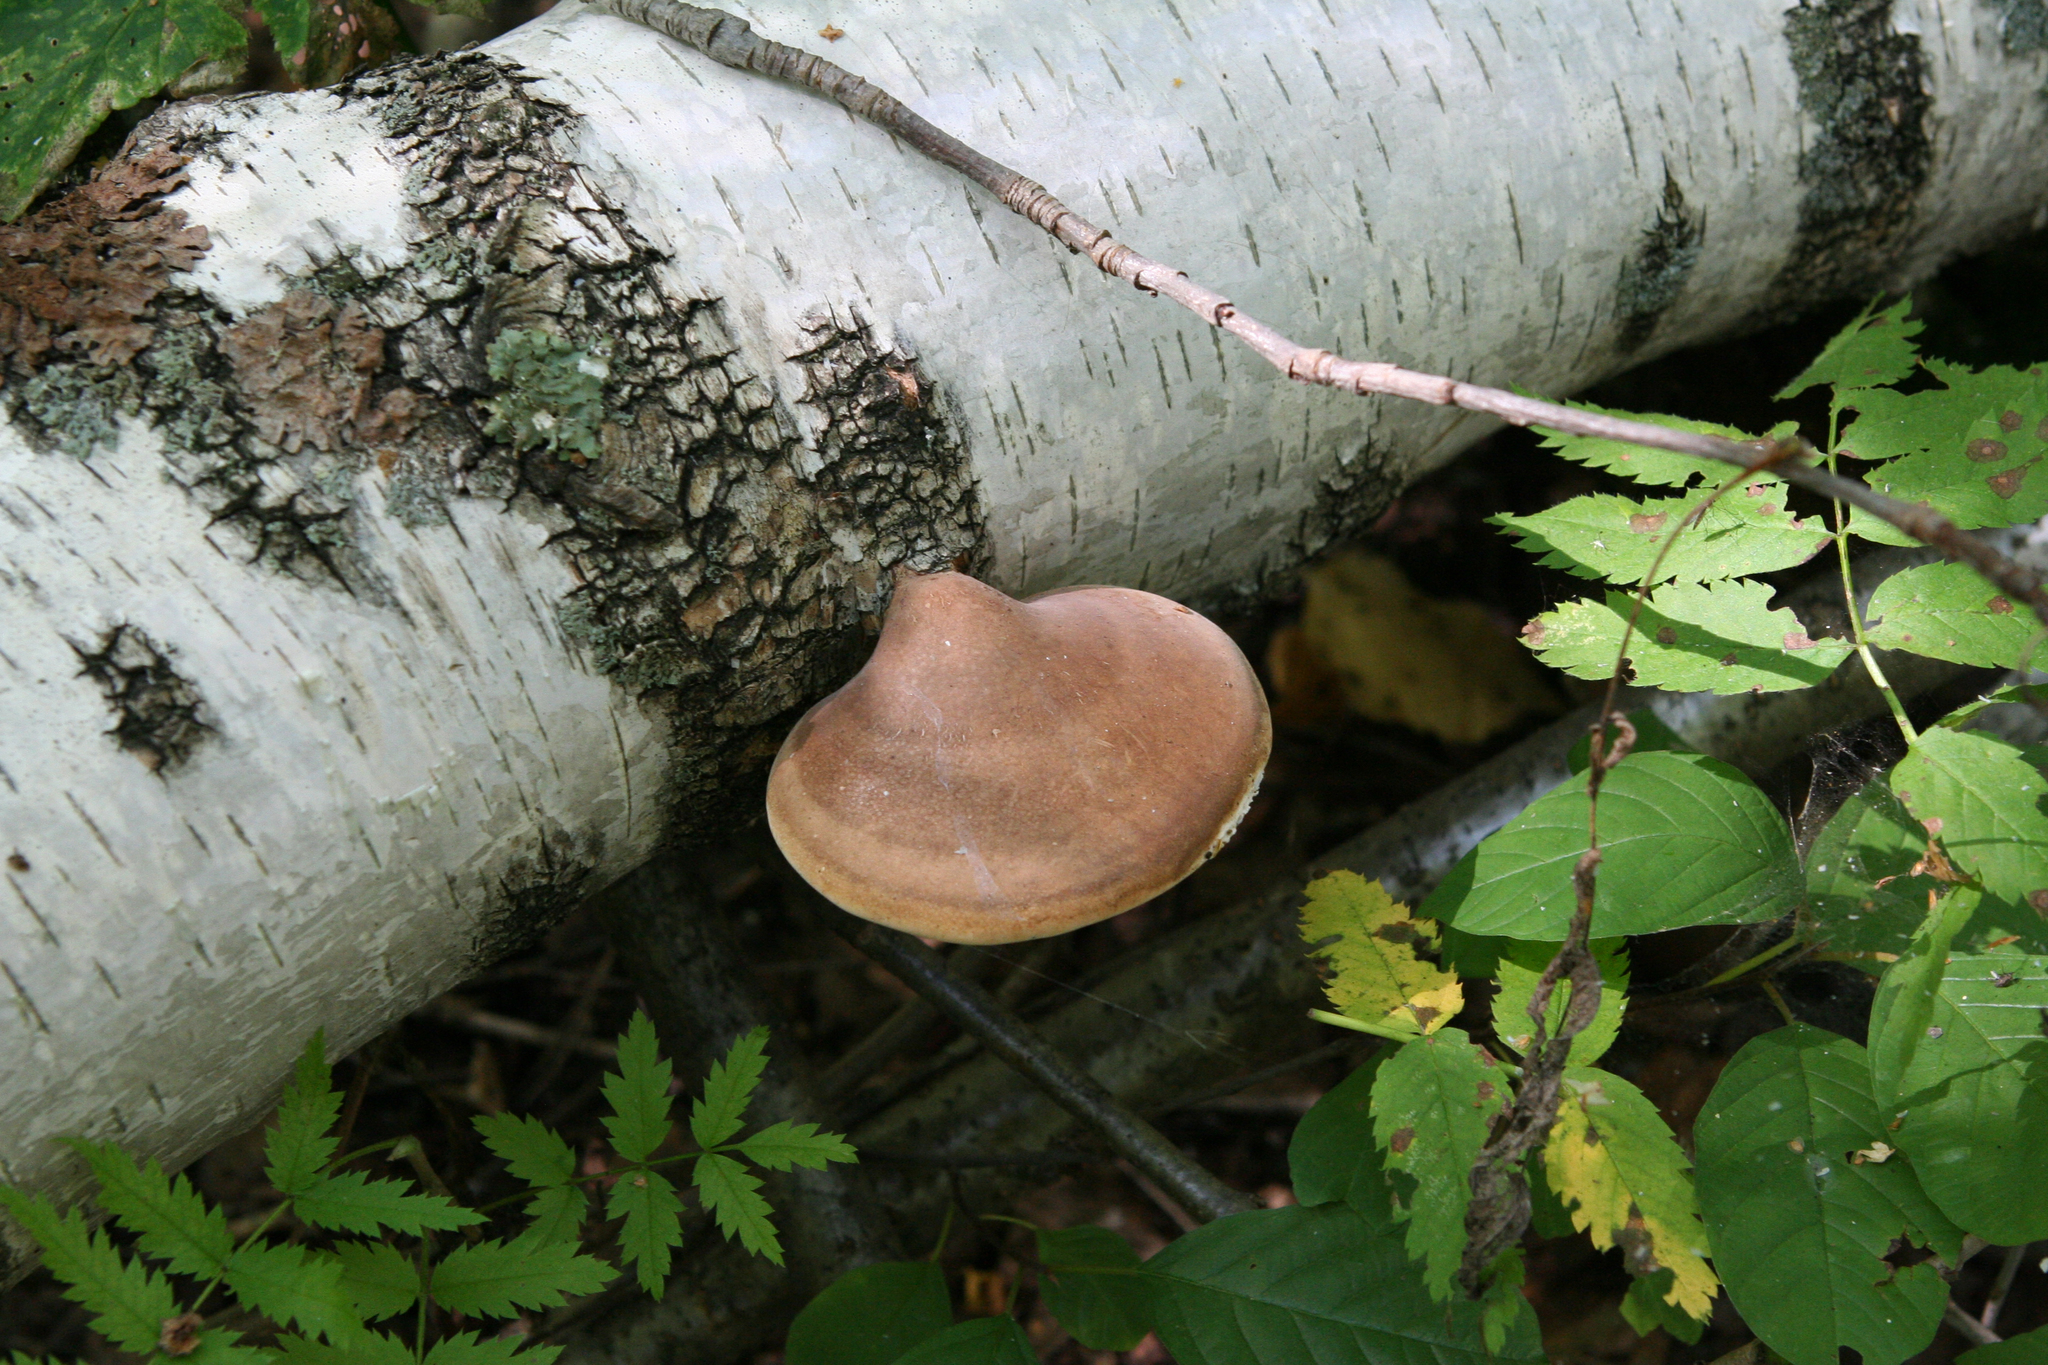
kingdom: Fungi
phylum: Basidiomycota
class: Agaricomycetes
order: Polyporales
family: Fomitopsidaceae
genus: Fomitopsis
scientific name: Fomitopsis betulina
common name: Birch polypore
